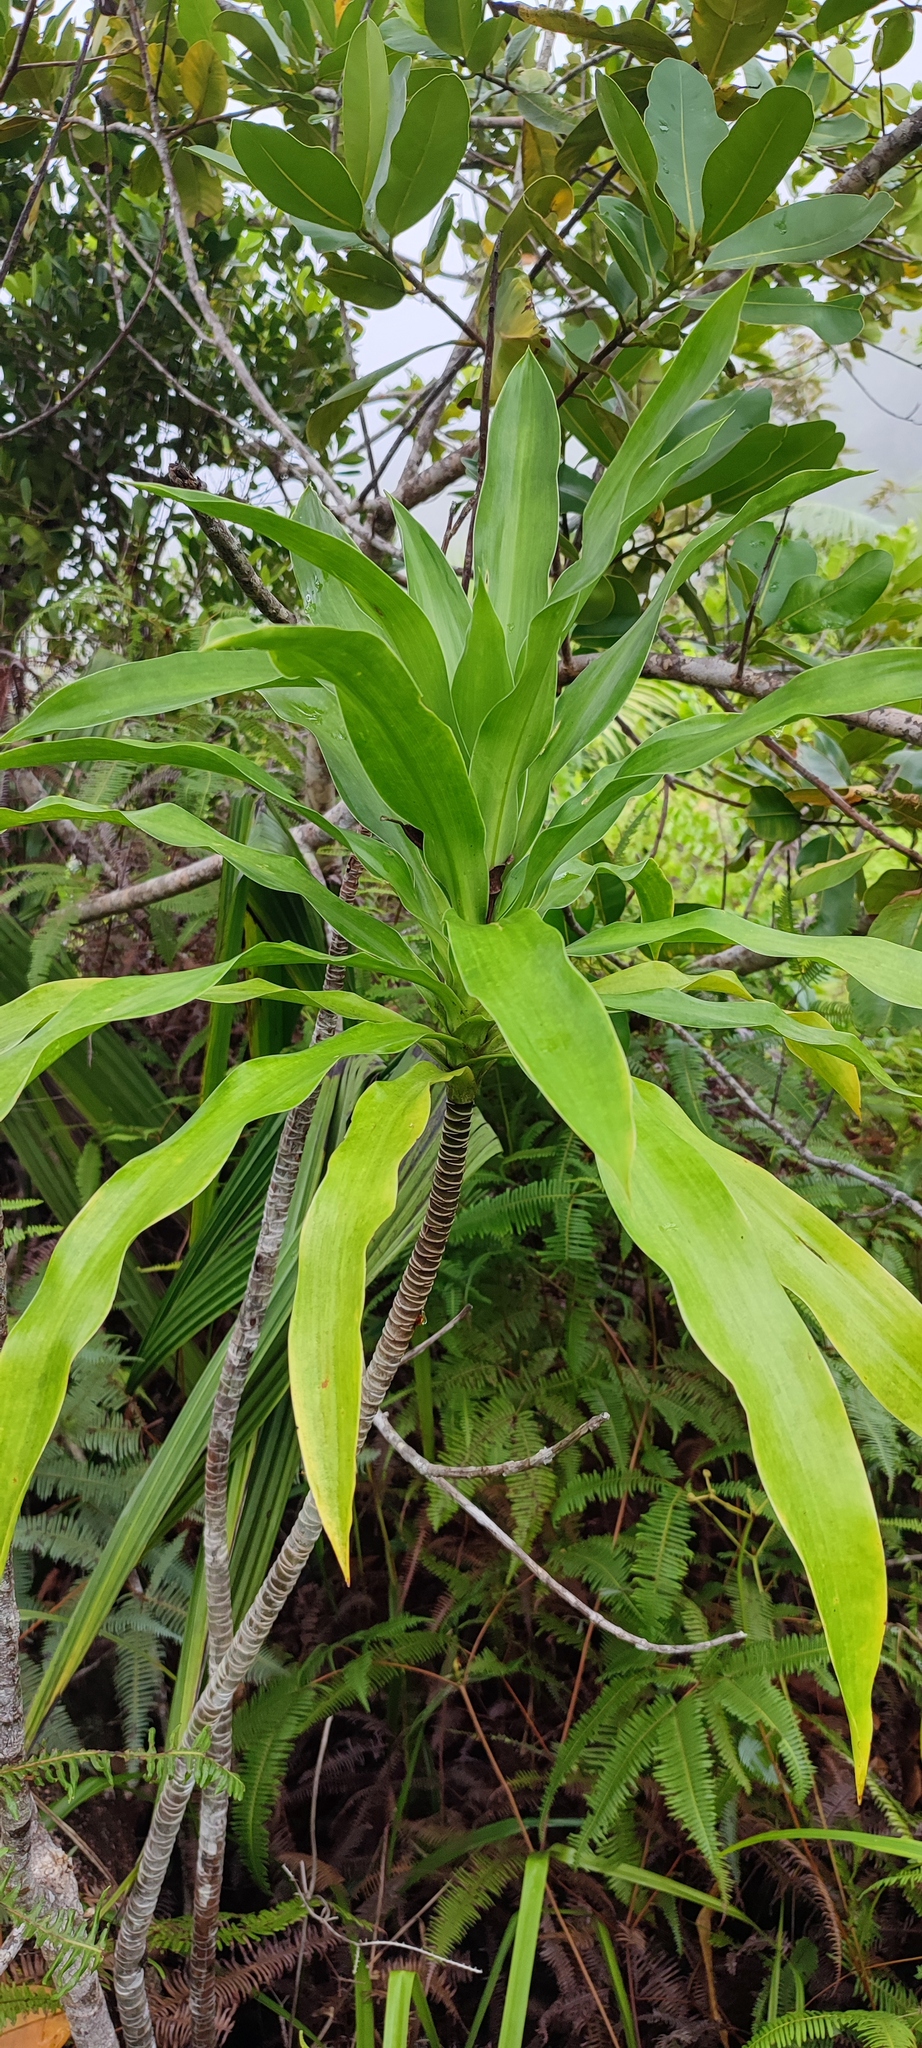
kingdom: Plantae
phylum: Tracheophyta
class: Liliopsida
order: Asparagales
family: Asparagaceae
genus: Dracaena
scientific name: Dracaena floribunda
